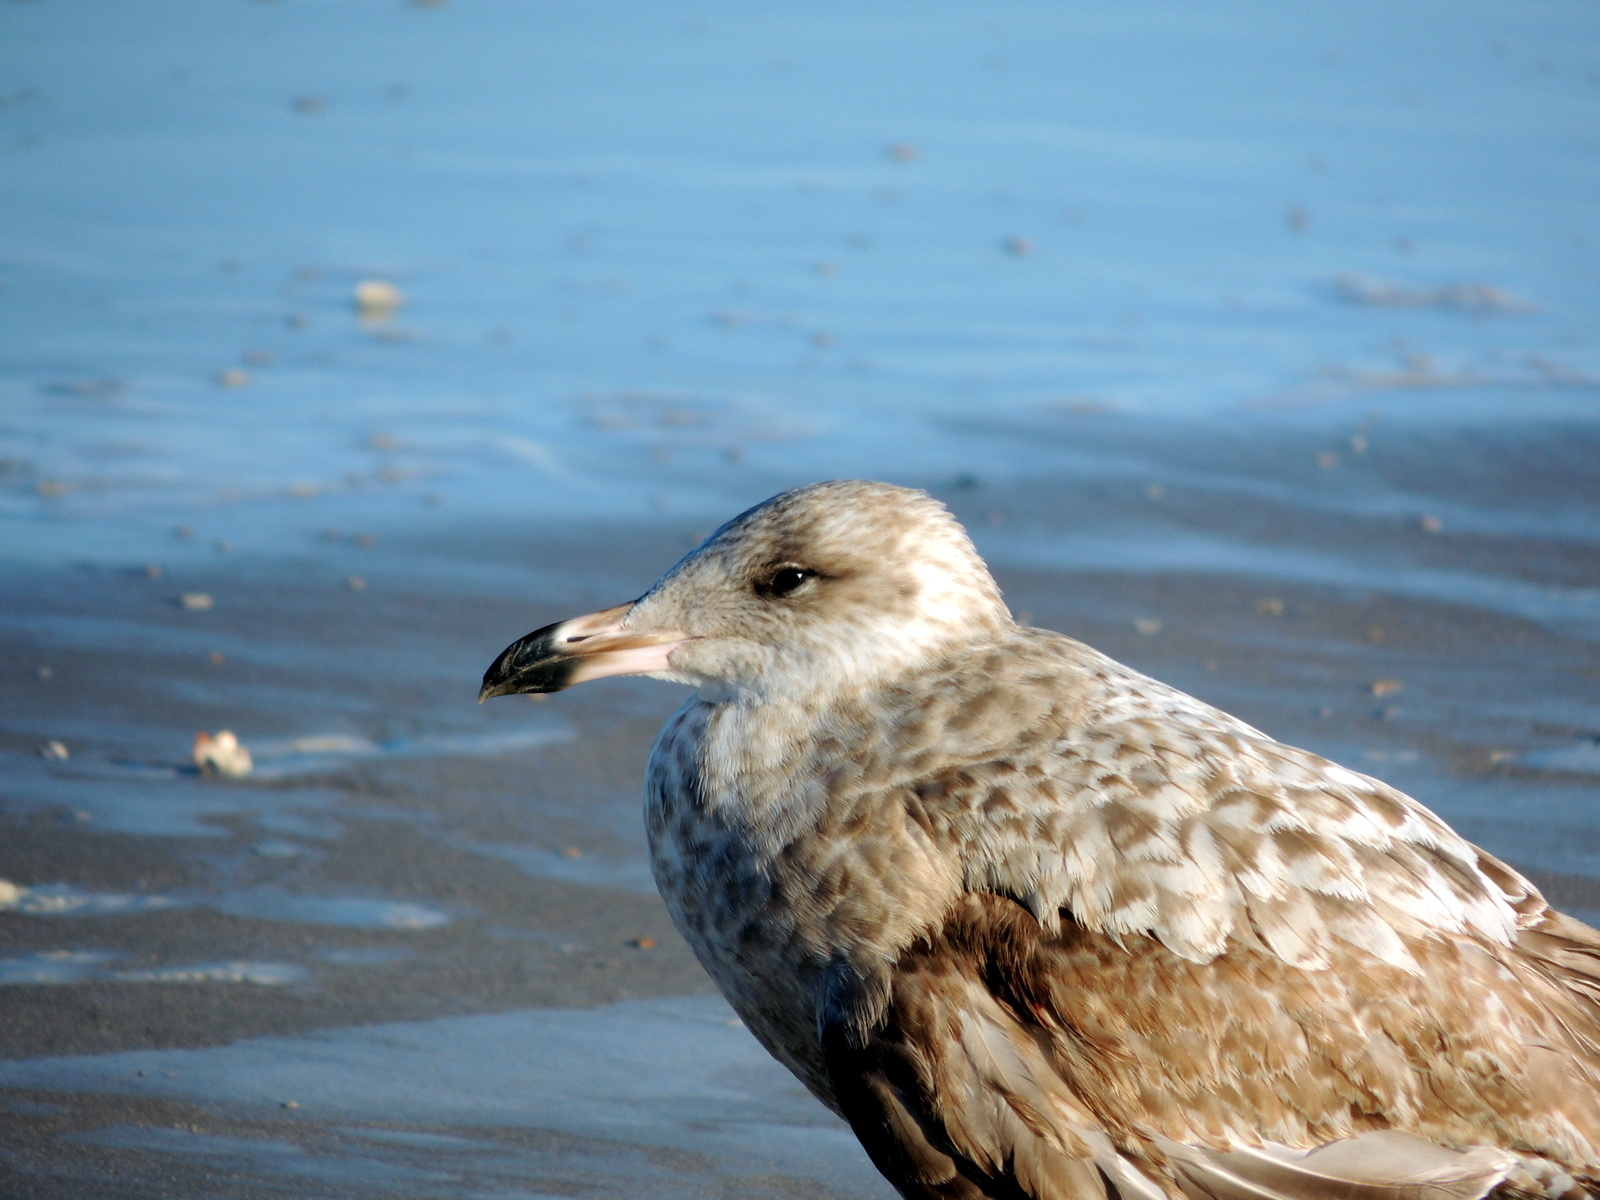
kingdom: Animalia
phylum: Chordata
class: Aves
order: Charadriiformes
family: Laridae
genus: Larus
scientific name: Larus argentatus
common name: Herring gull
